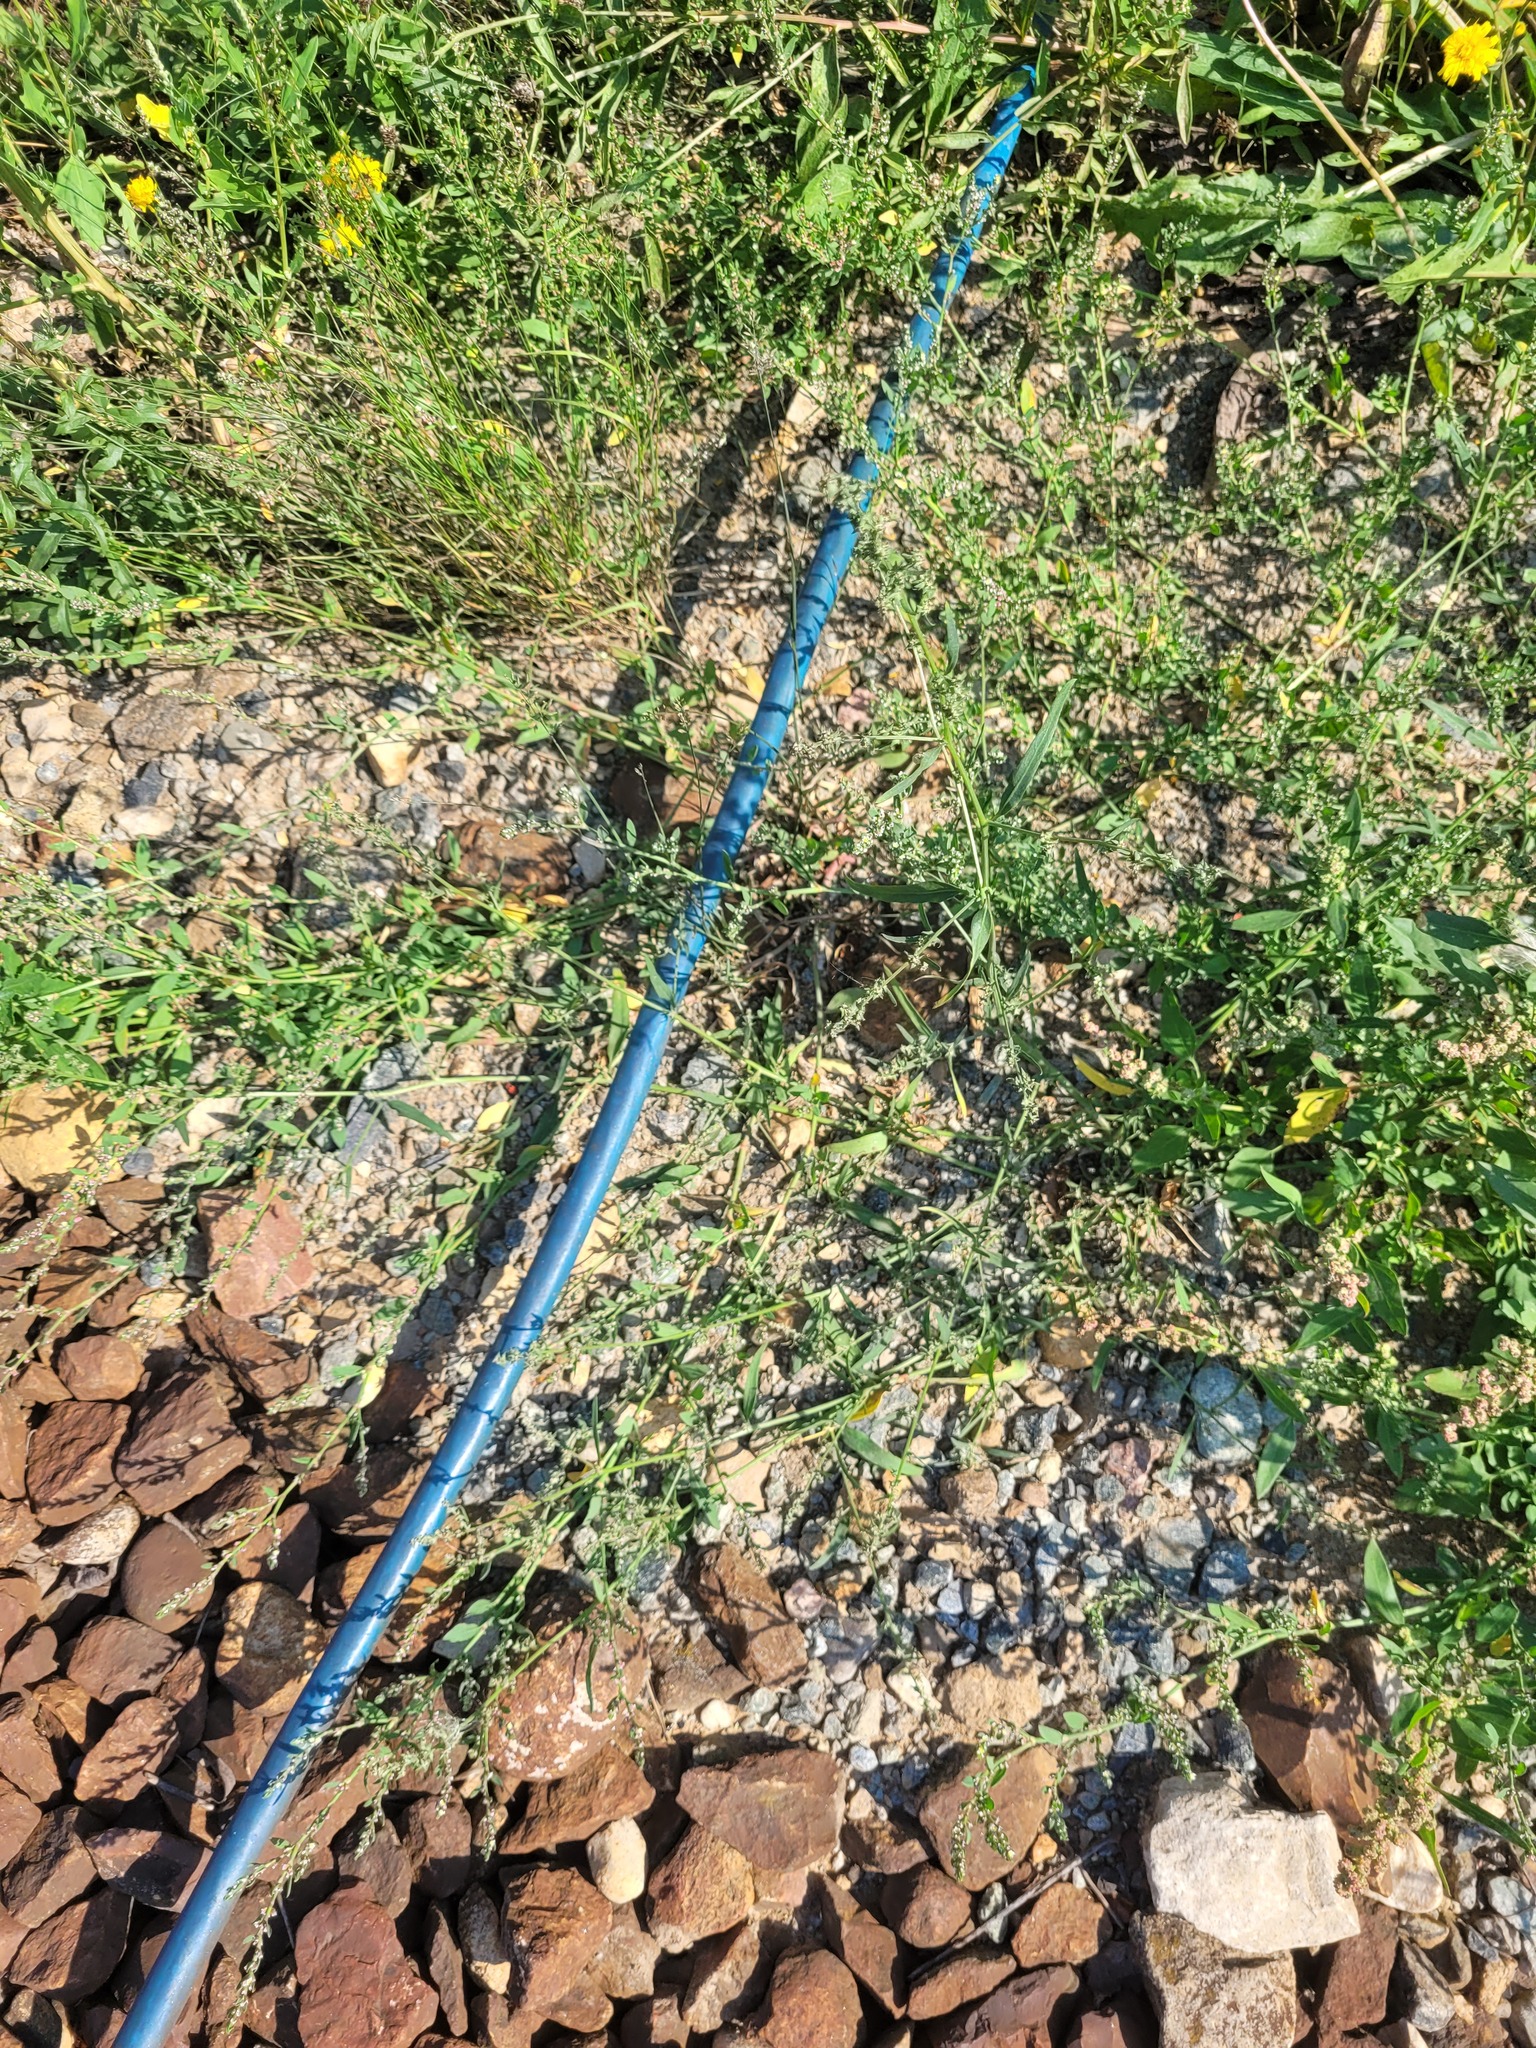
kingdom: Plantae
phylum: Tracheophyta
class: Magnoliopsida
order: Caryophyllales
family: Amaranthaceae
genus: Atriplex
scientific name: Atriplex patula
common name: Common orache
